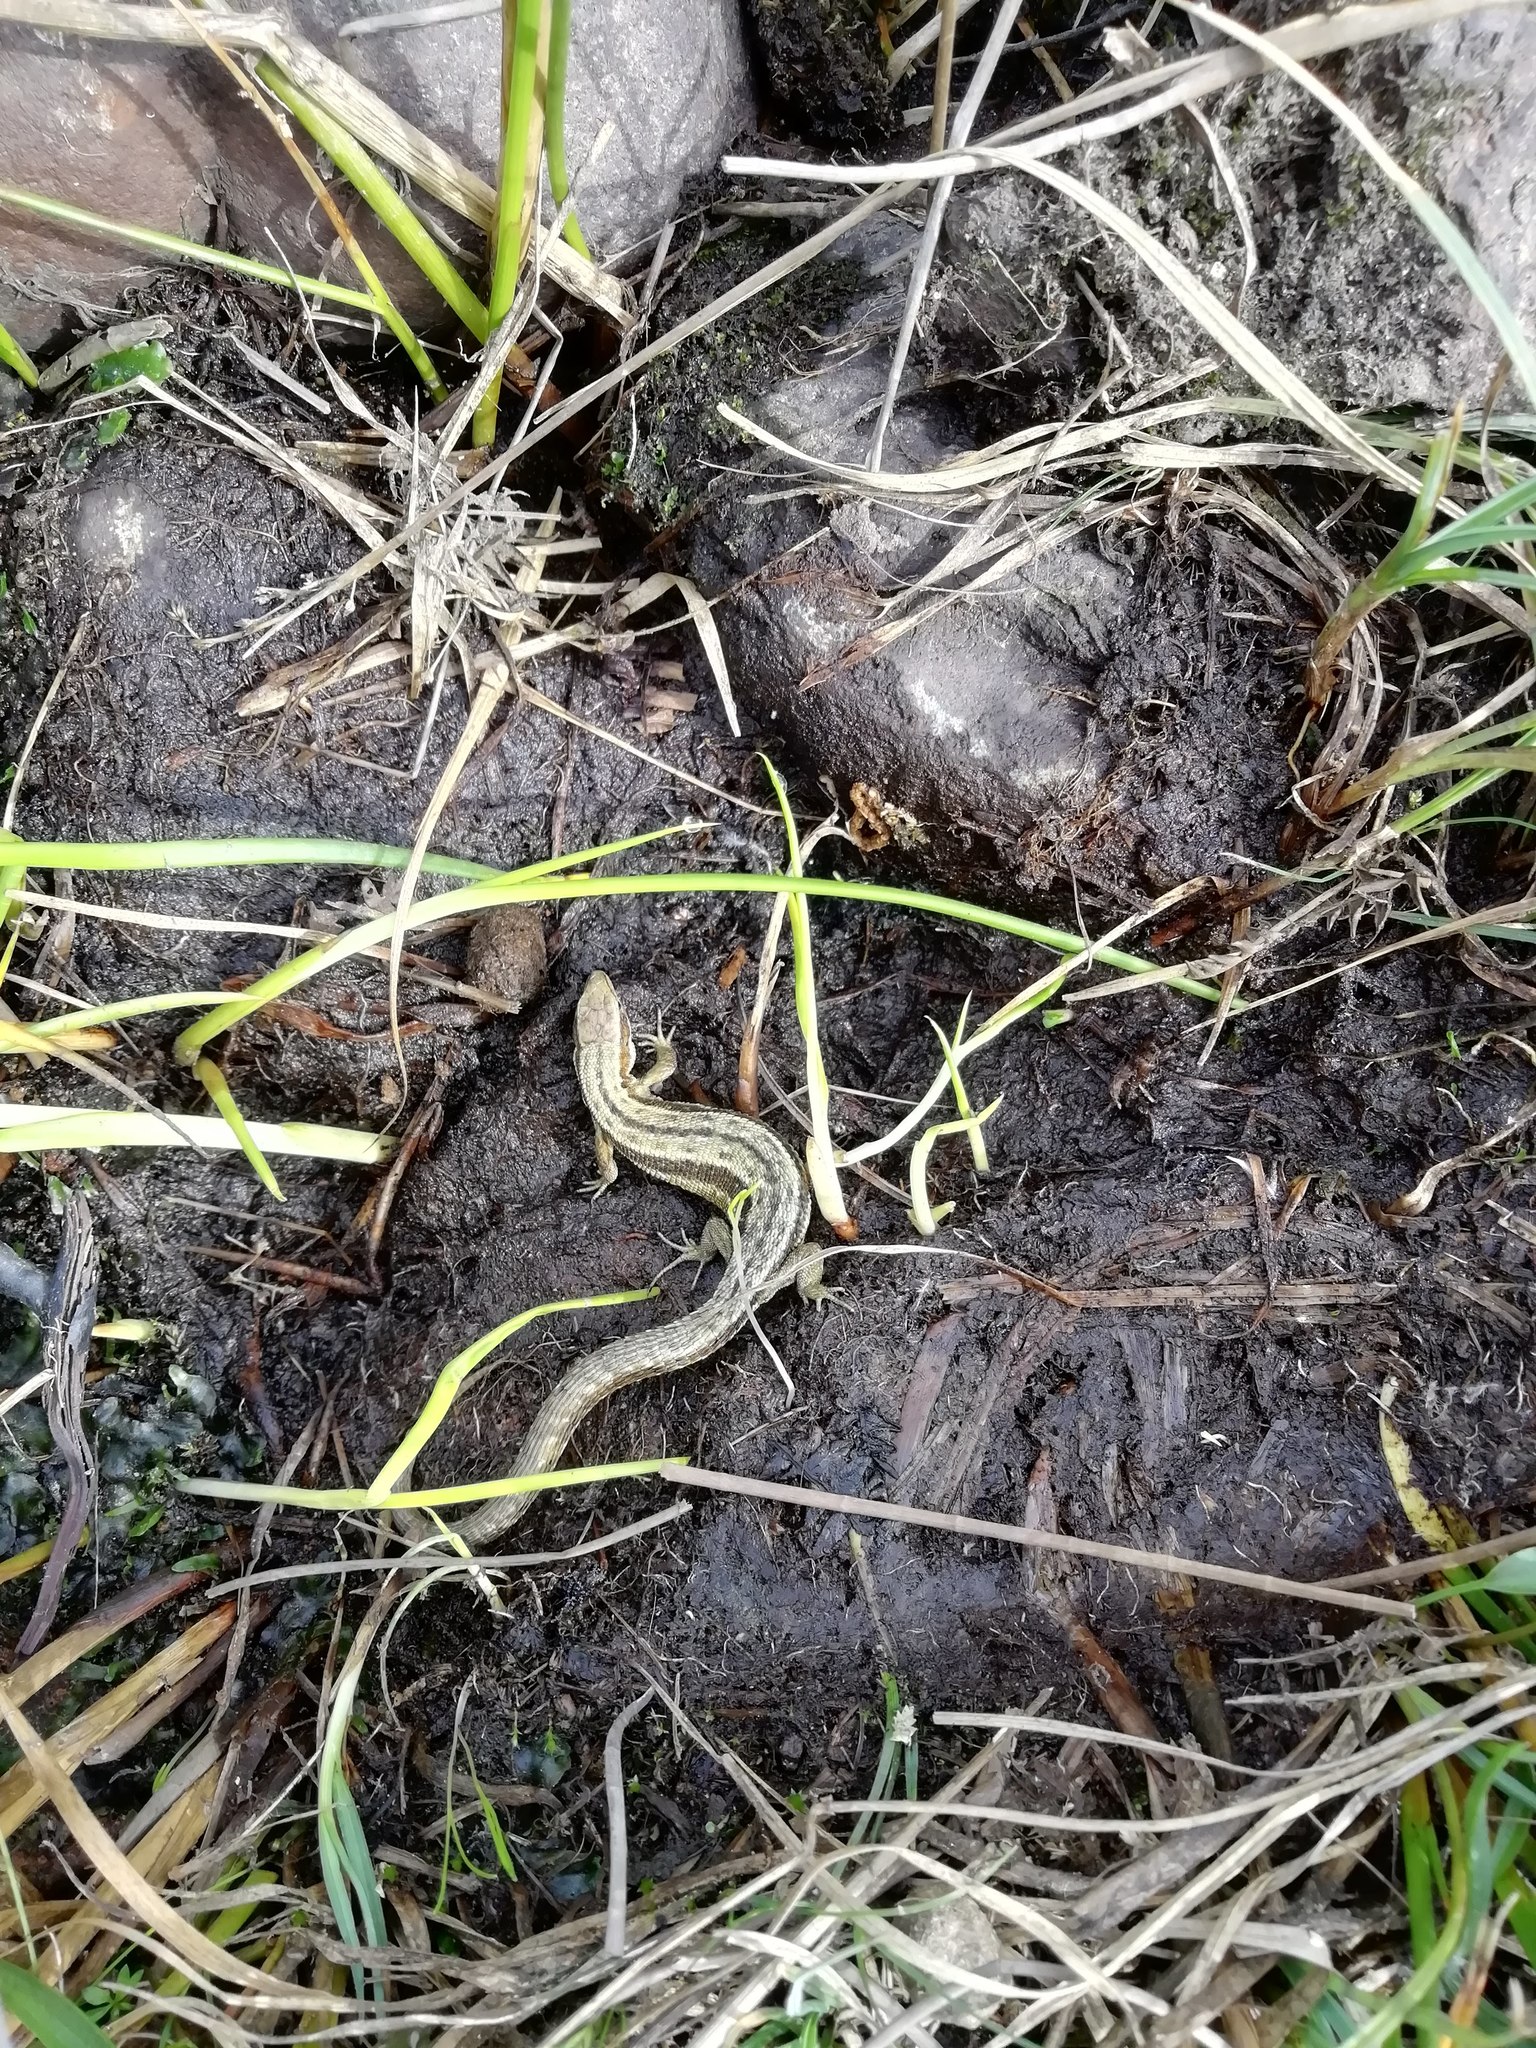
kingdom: Animalia
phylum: Chordata
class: Squamata
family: Lacertidae
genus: Zootoca
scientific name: Zootoca vivipara
